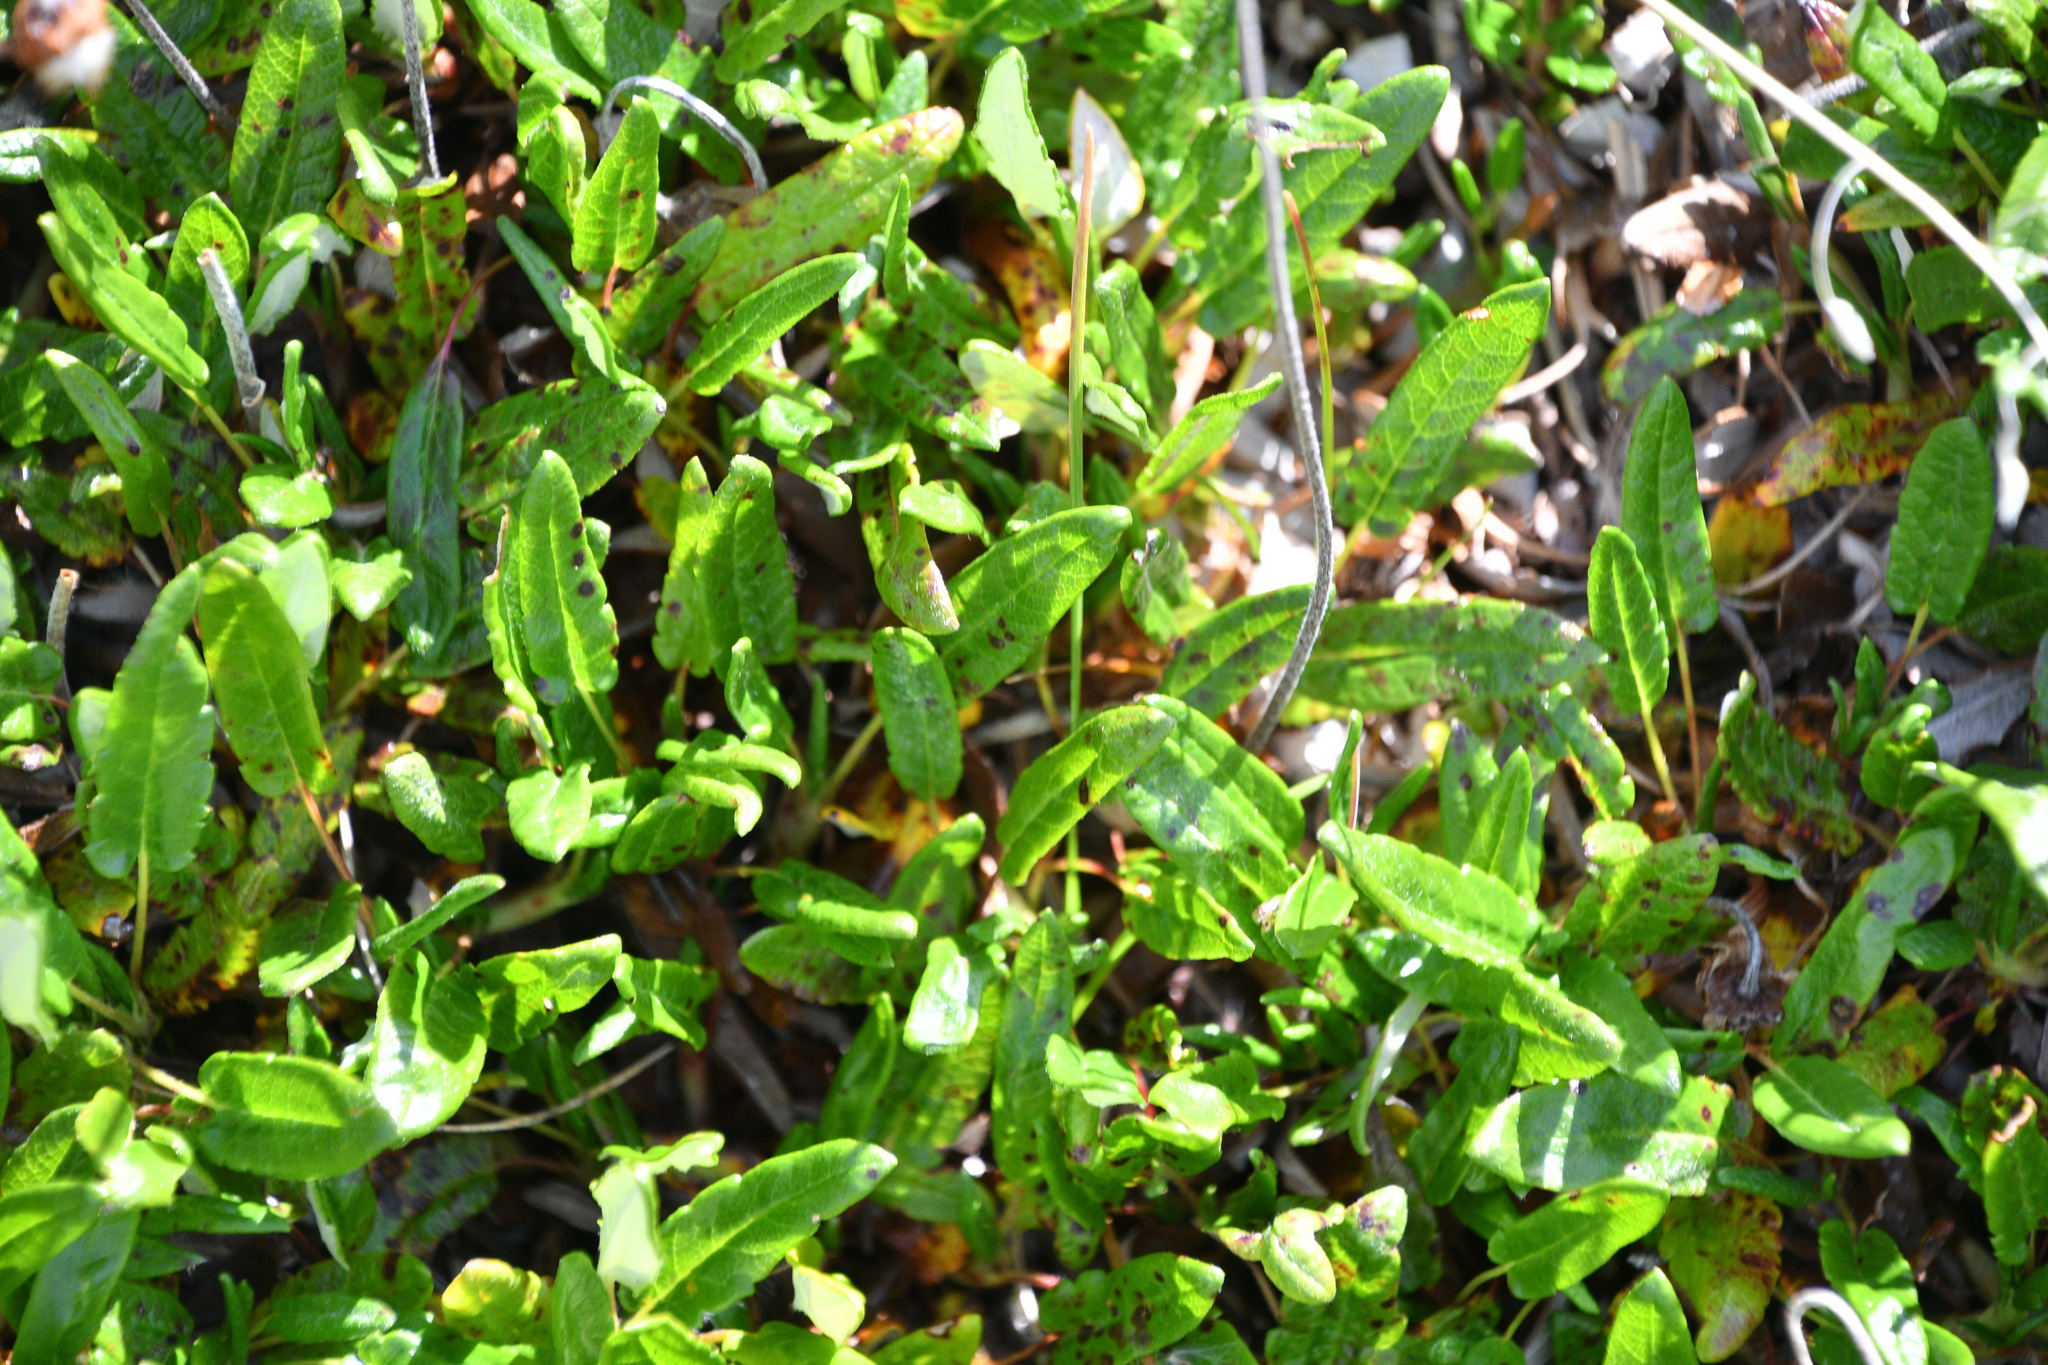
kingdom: Plantae
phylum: Tracheophyta
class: Magnoliopsida
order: Rosales
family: Rosaceae
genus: Dryas
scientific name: Dryas integrifolia
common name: Entire-leaved mountain avens
